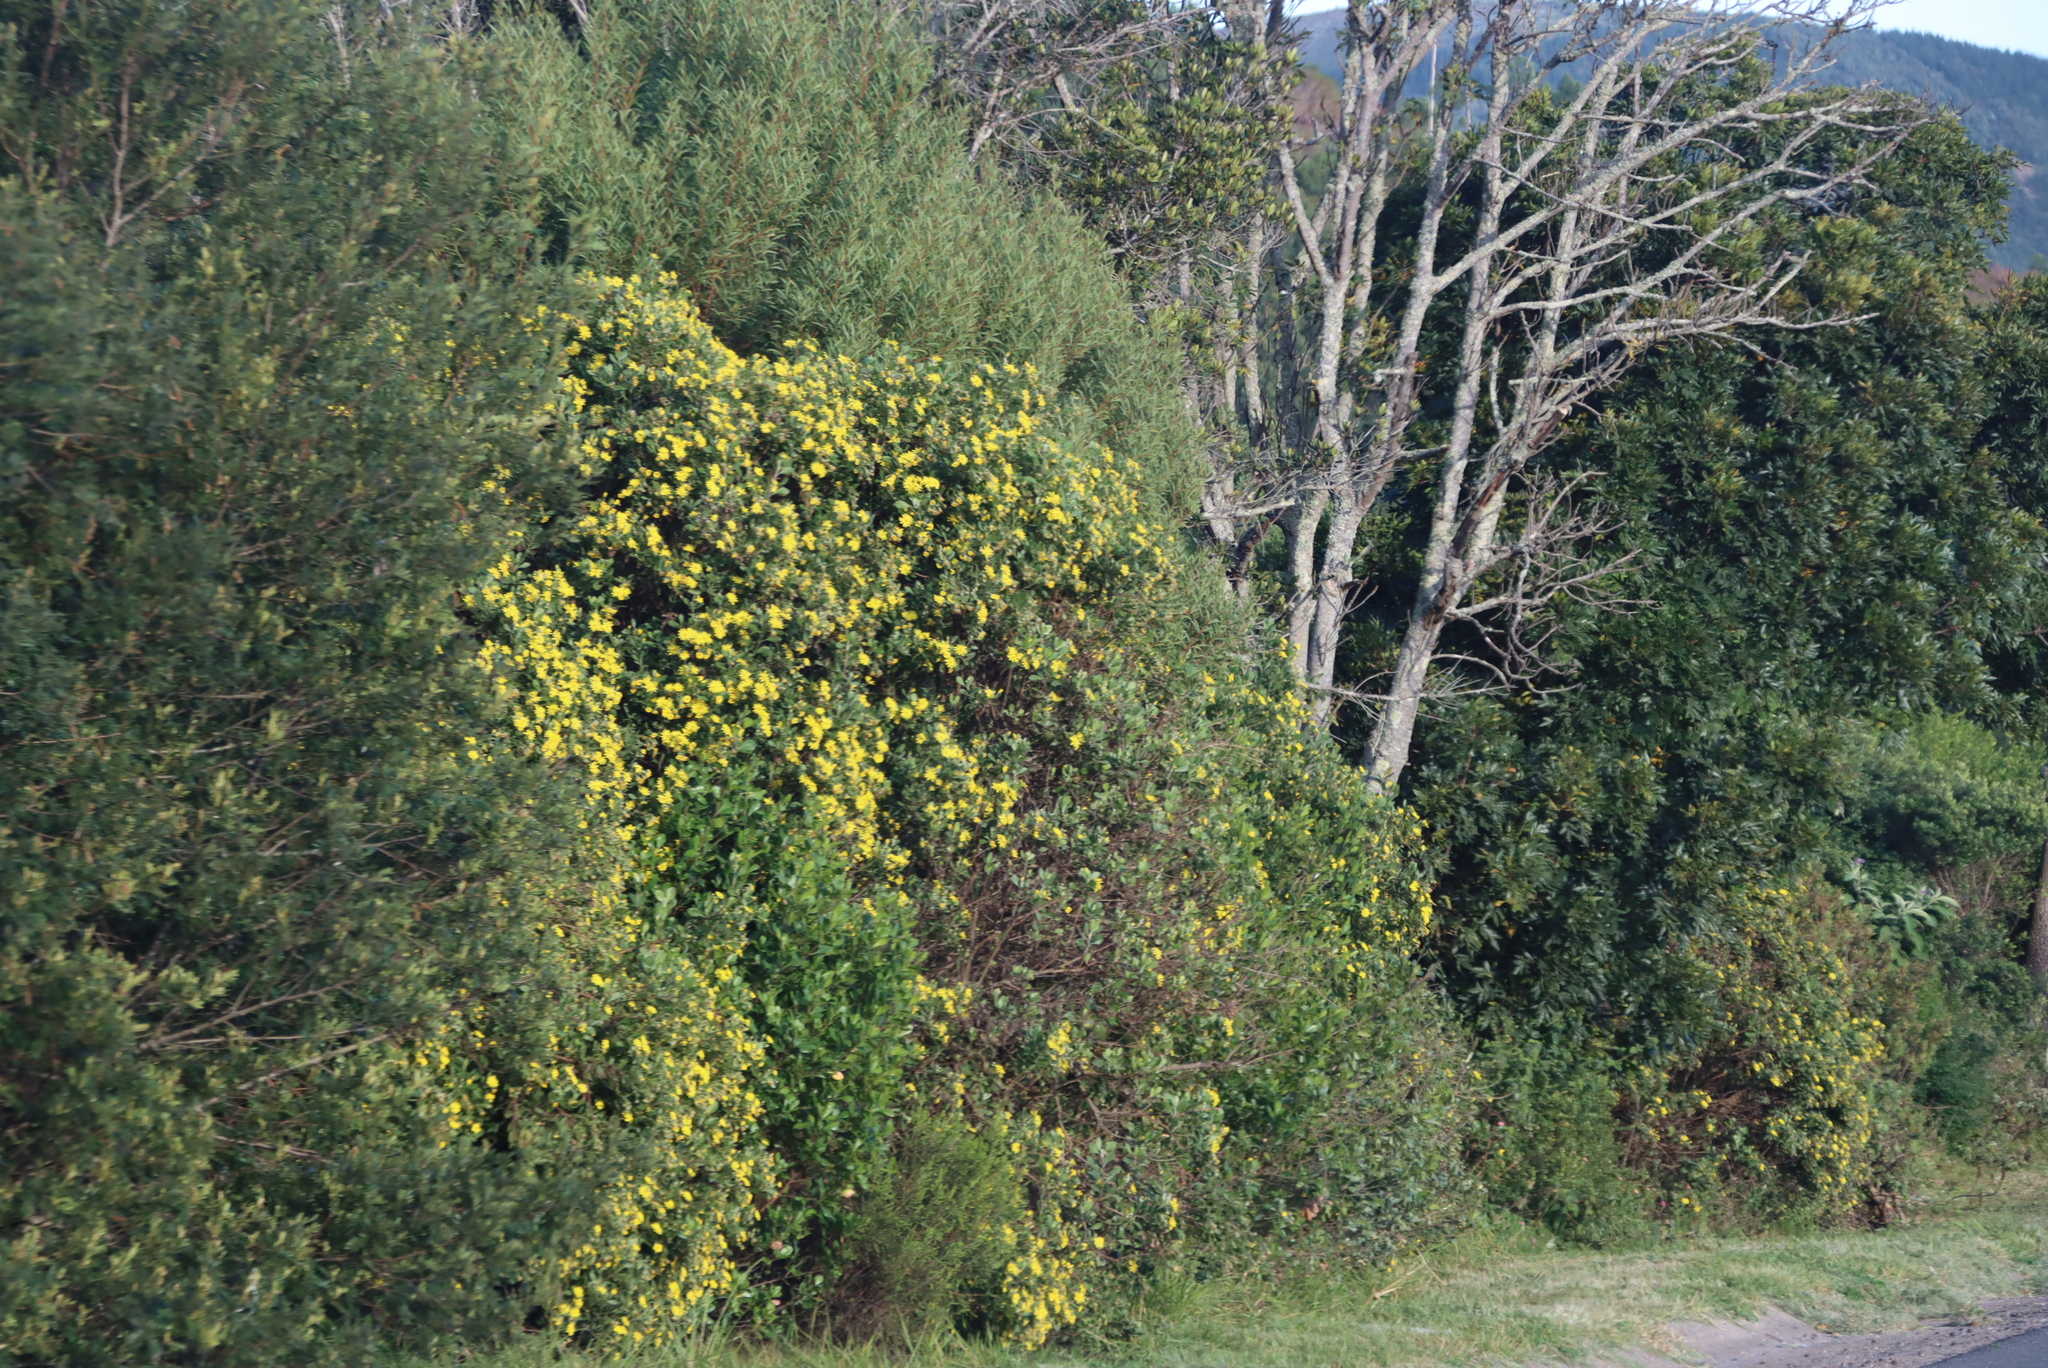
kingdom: Plantae
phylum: Tracheophyta
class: Magnoliopsida
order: Asterales
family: Asteraceae
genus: Osteospermum
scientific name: Osteospermum moniliferum
